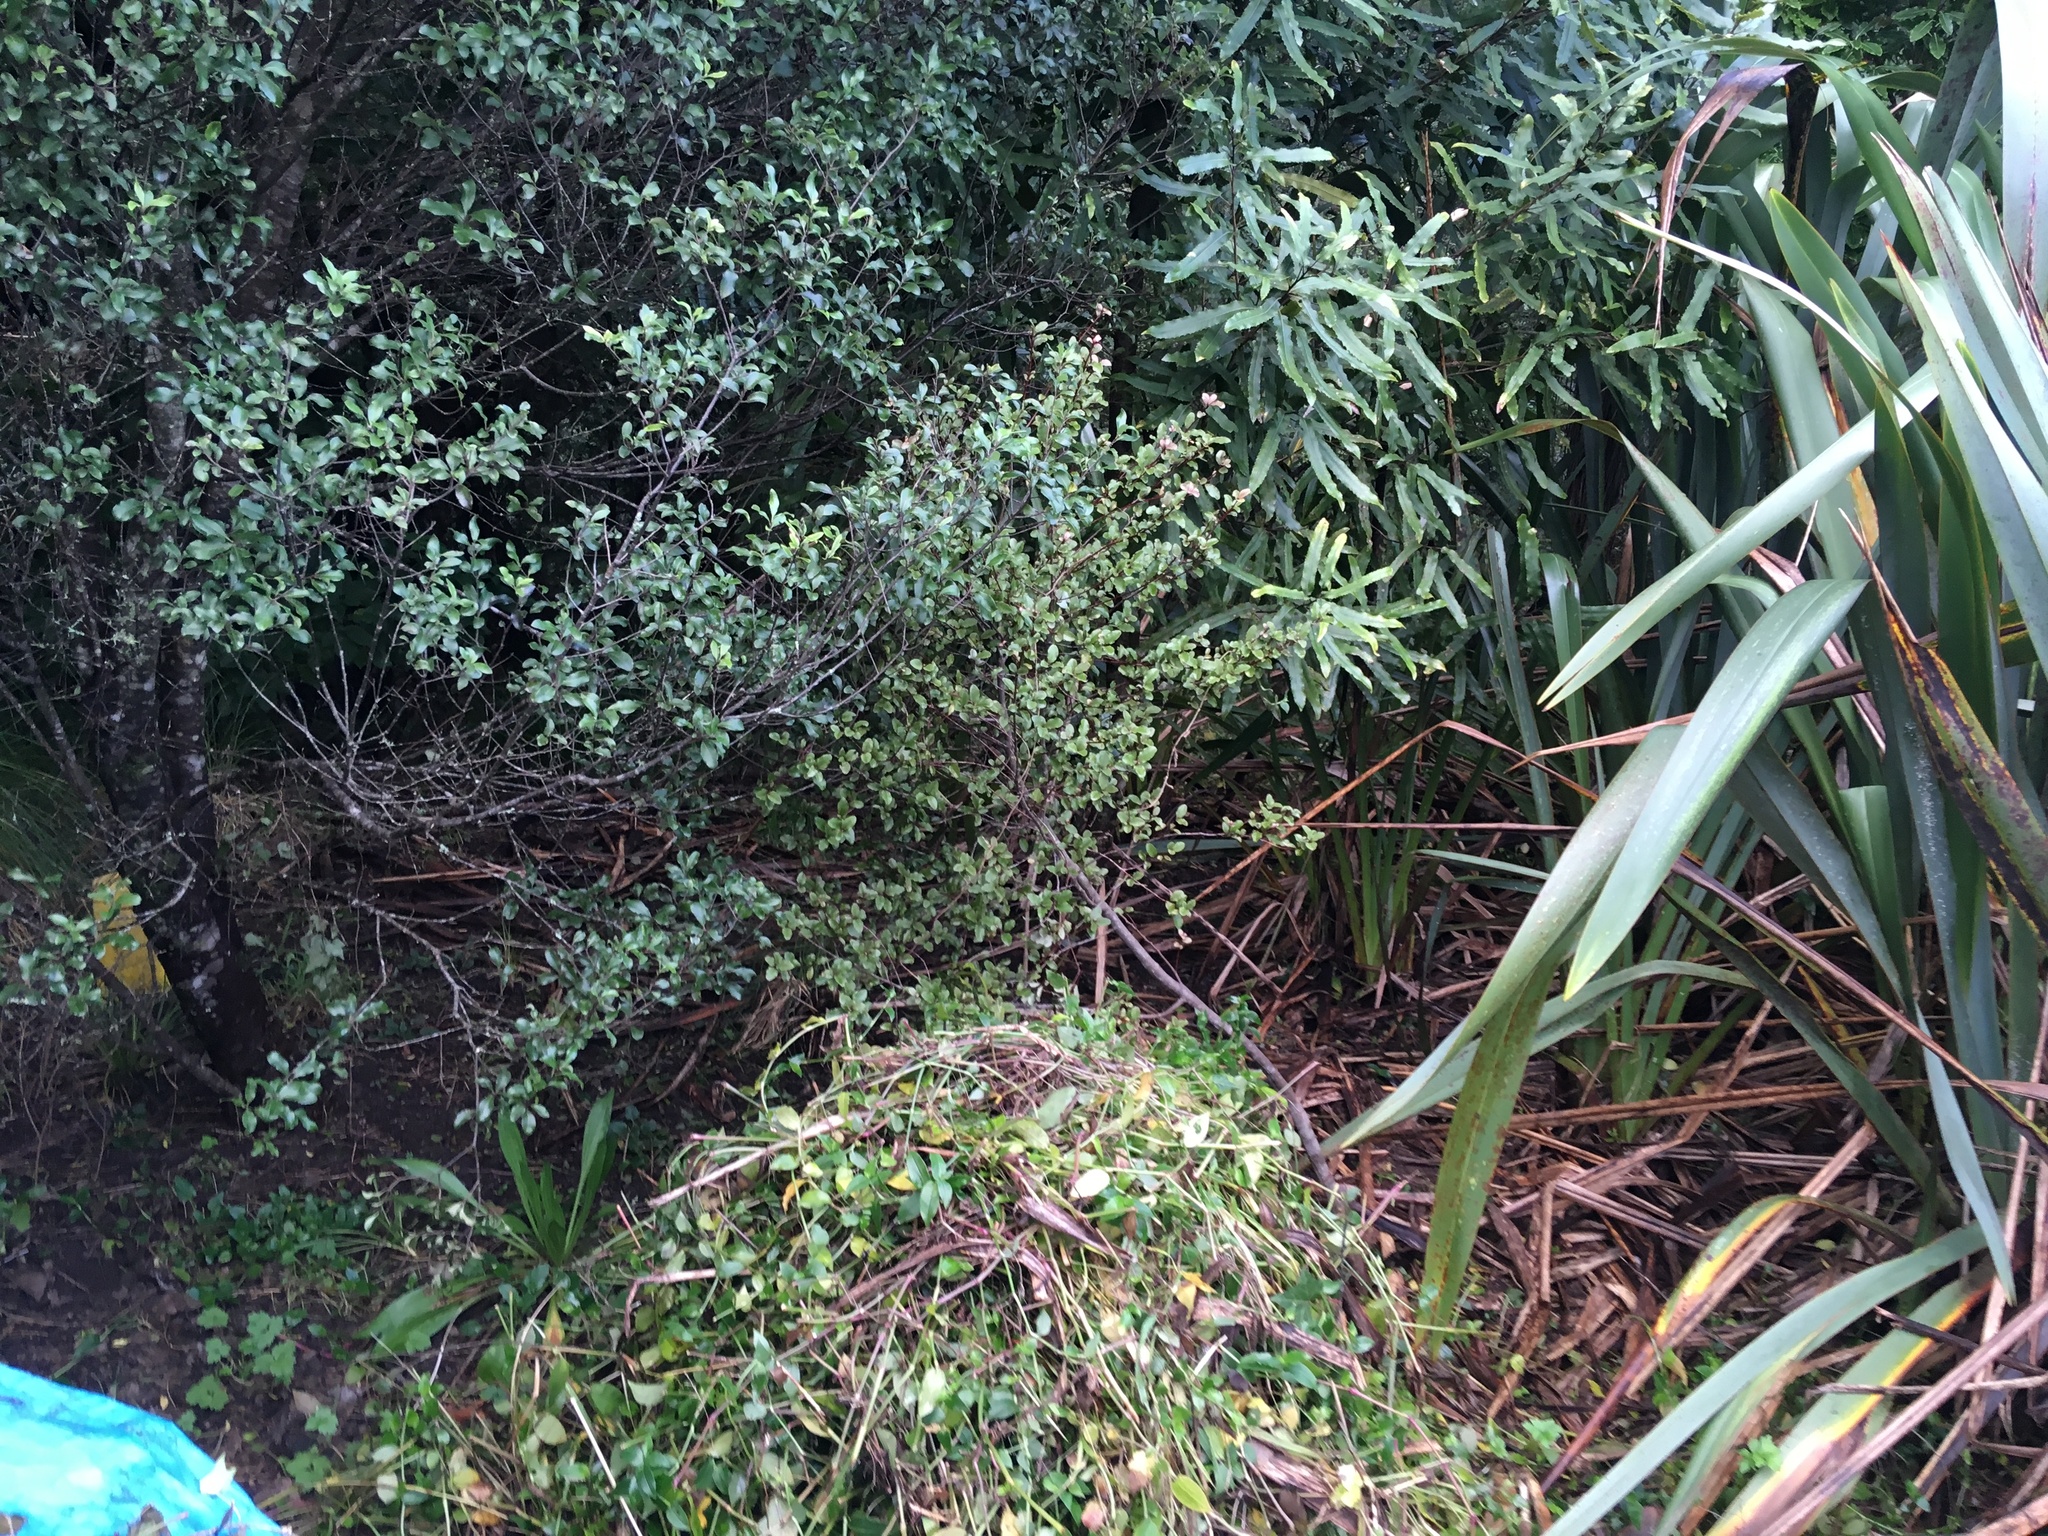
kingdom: Plantae
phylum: Tracheophyta
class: Liliopsida
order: Commelinales
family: Commelinaceae
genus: Tradescantia
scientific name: Tradescantia fluminensis
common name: Wandering-jew
